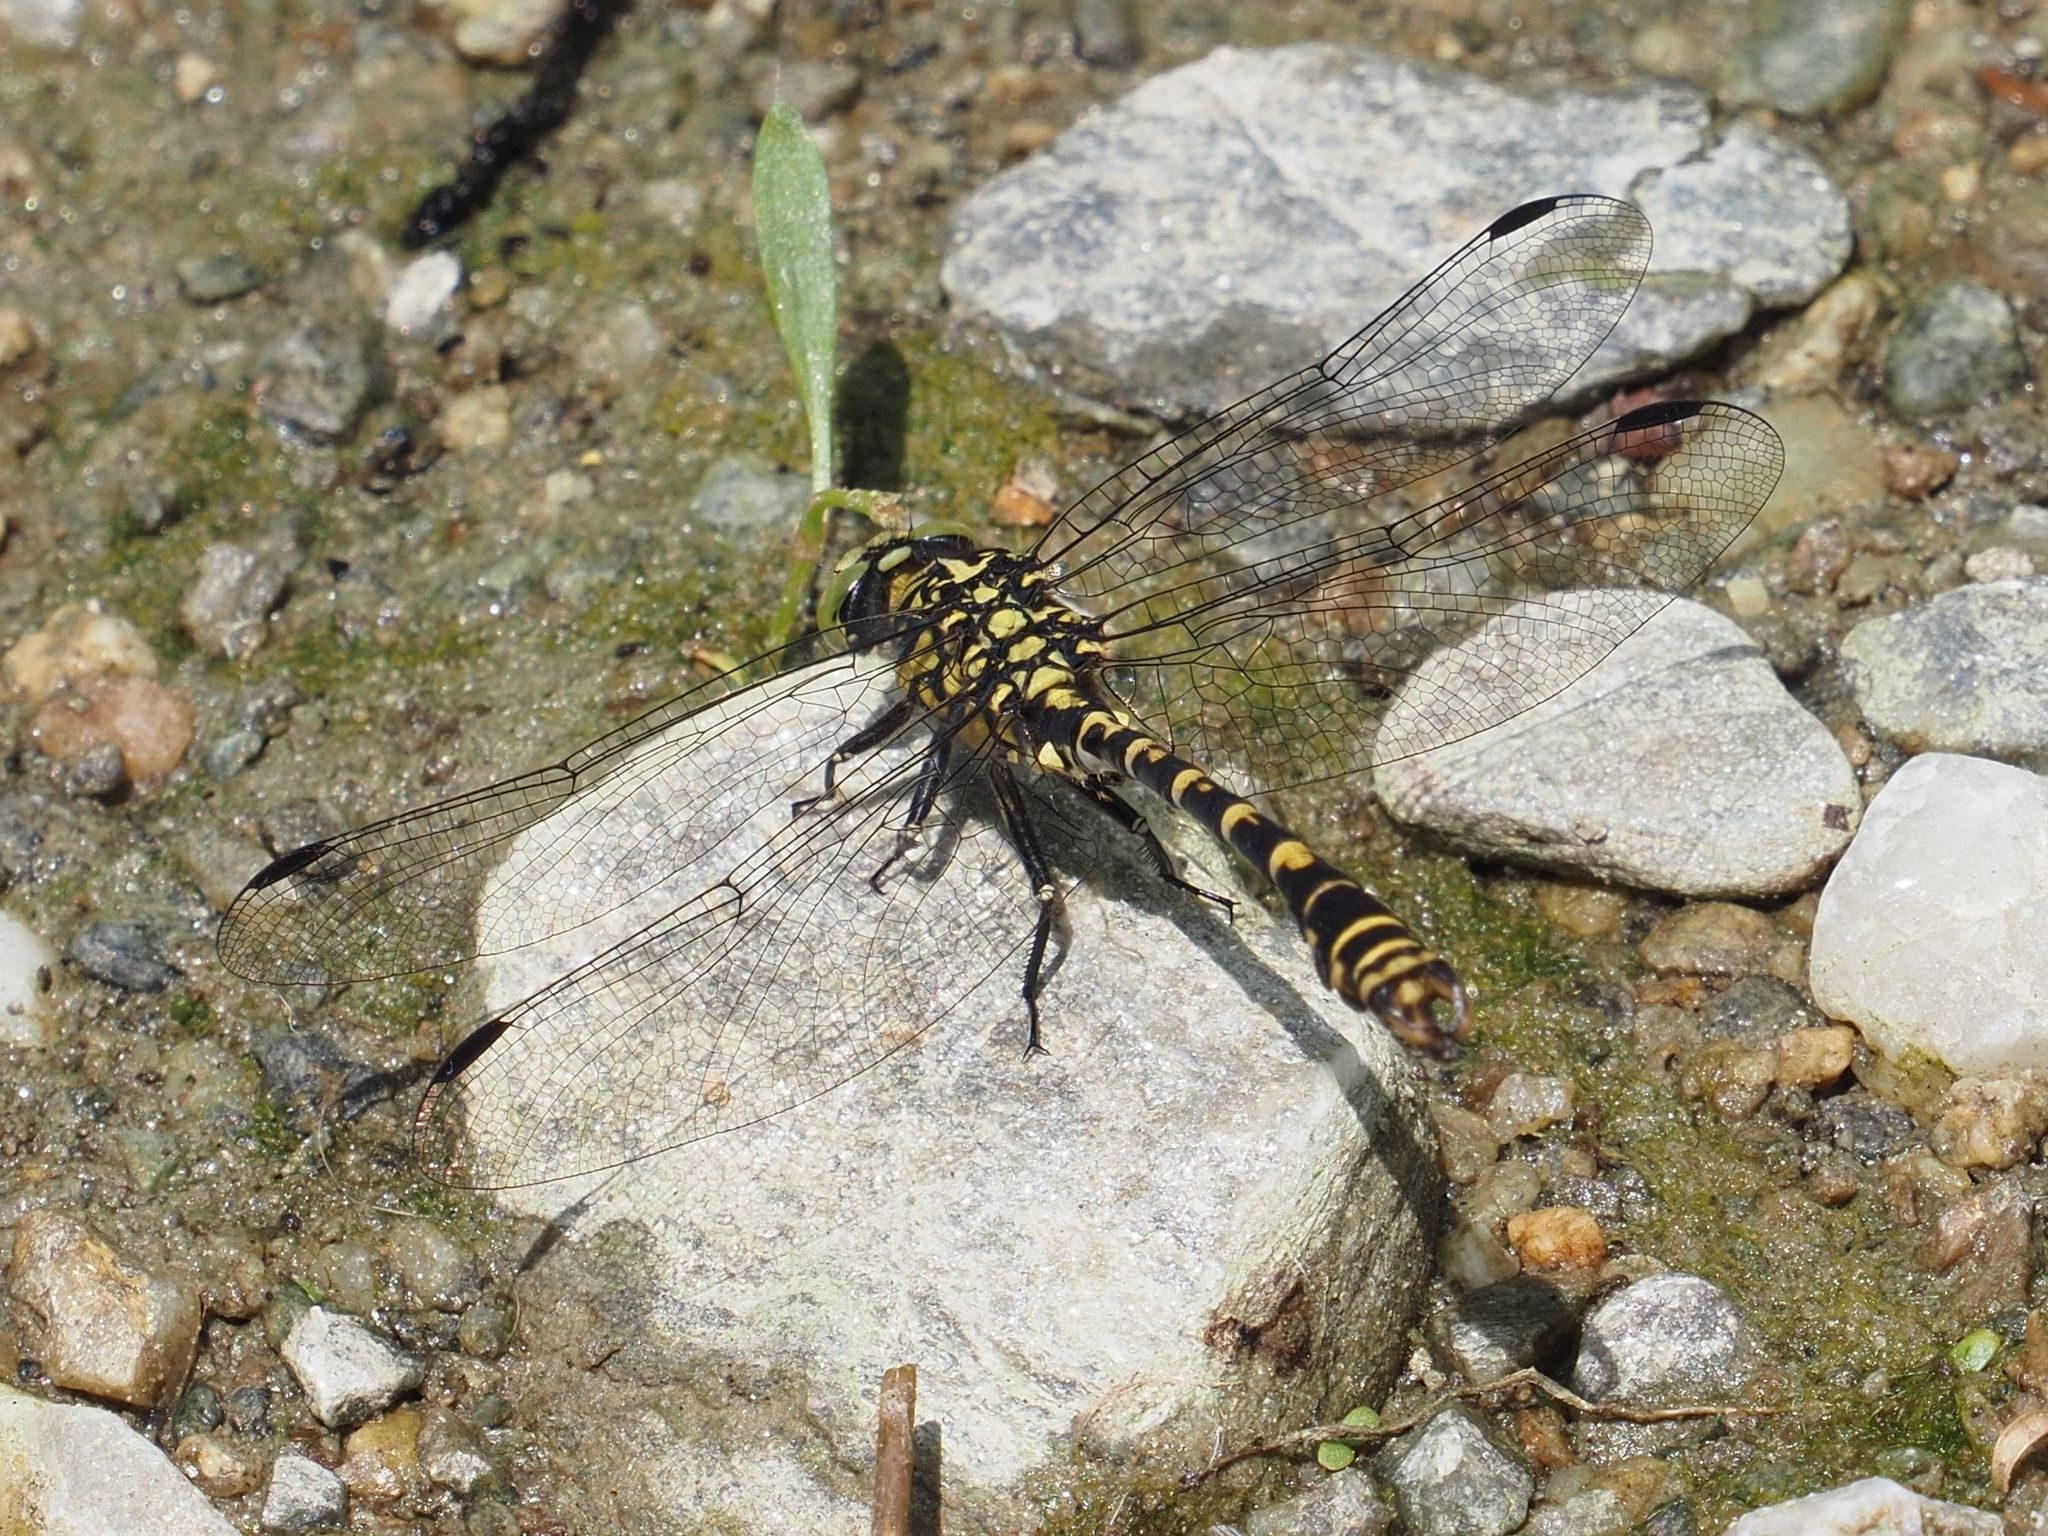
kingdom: Animalia
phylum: Arthropoda
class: Insecta
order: Odonata
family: Gomphidae
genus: Onychogomphus
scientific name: Onychogomphus forcipatus
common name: Small pincertail
